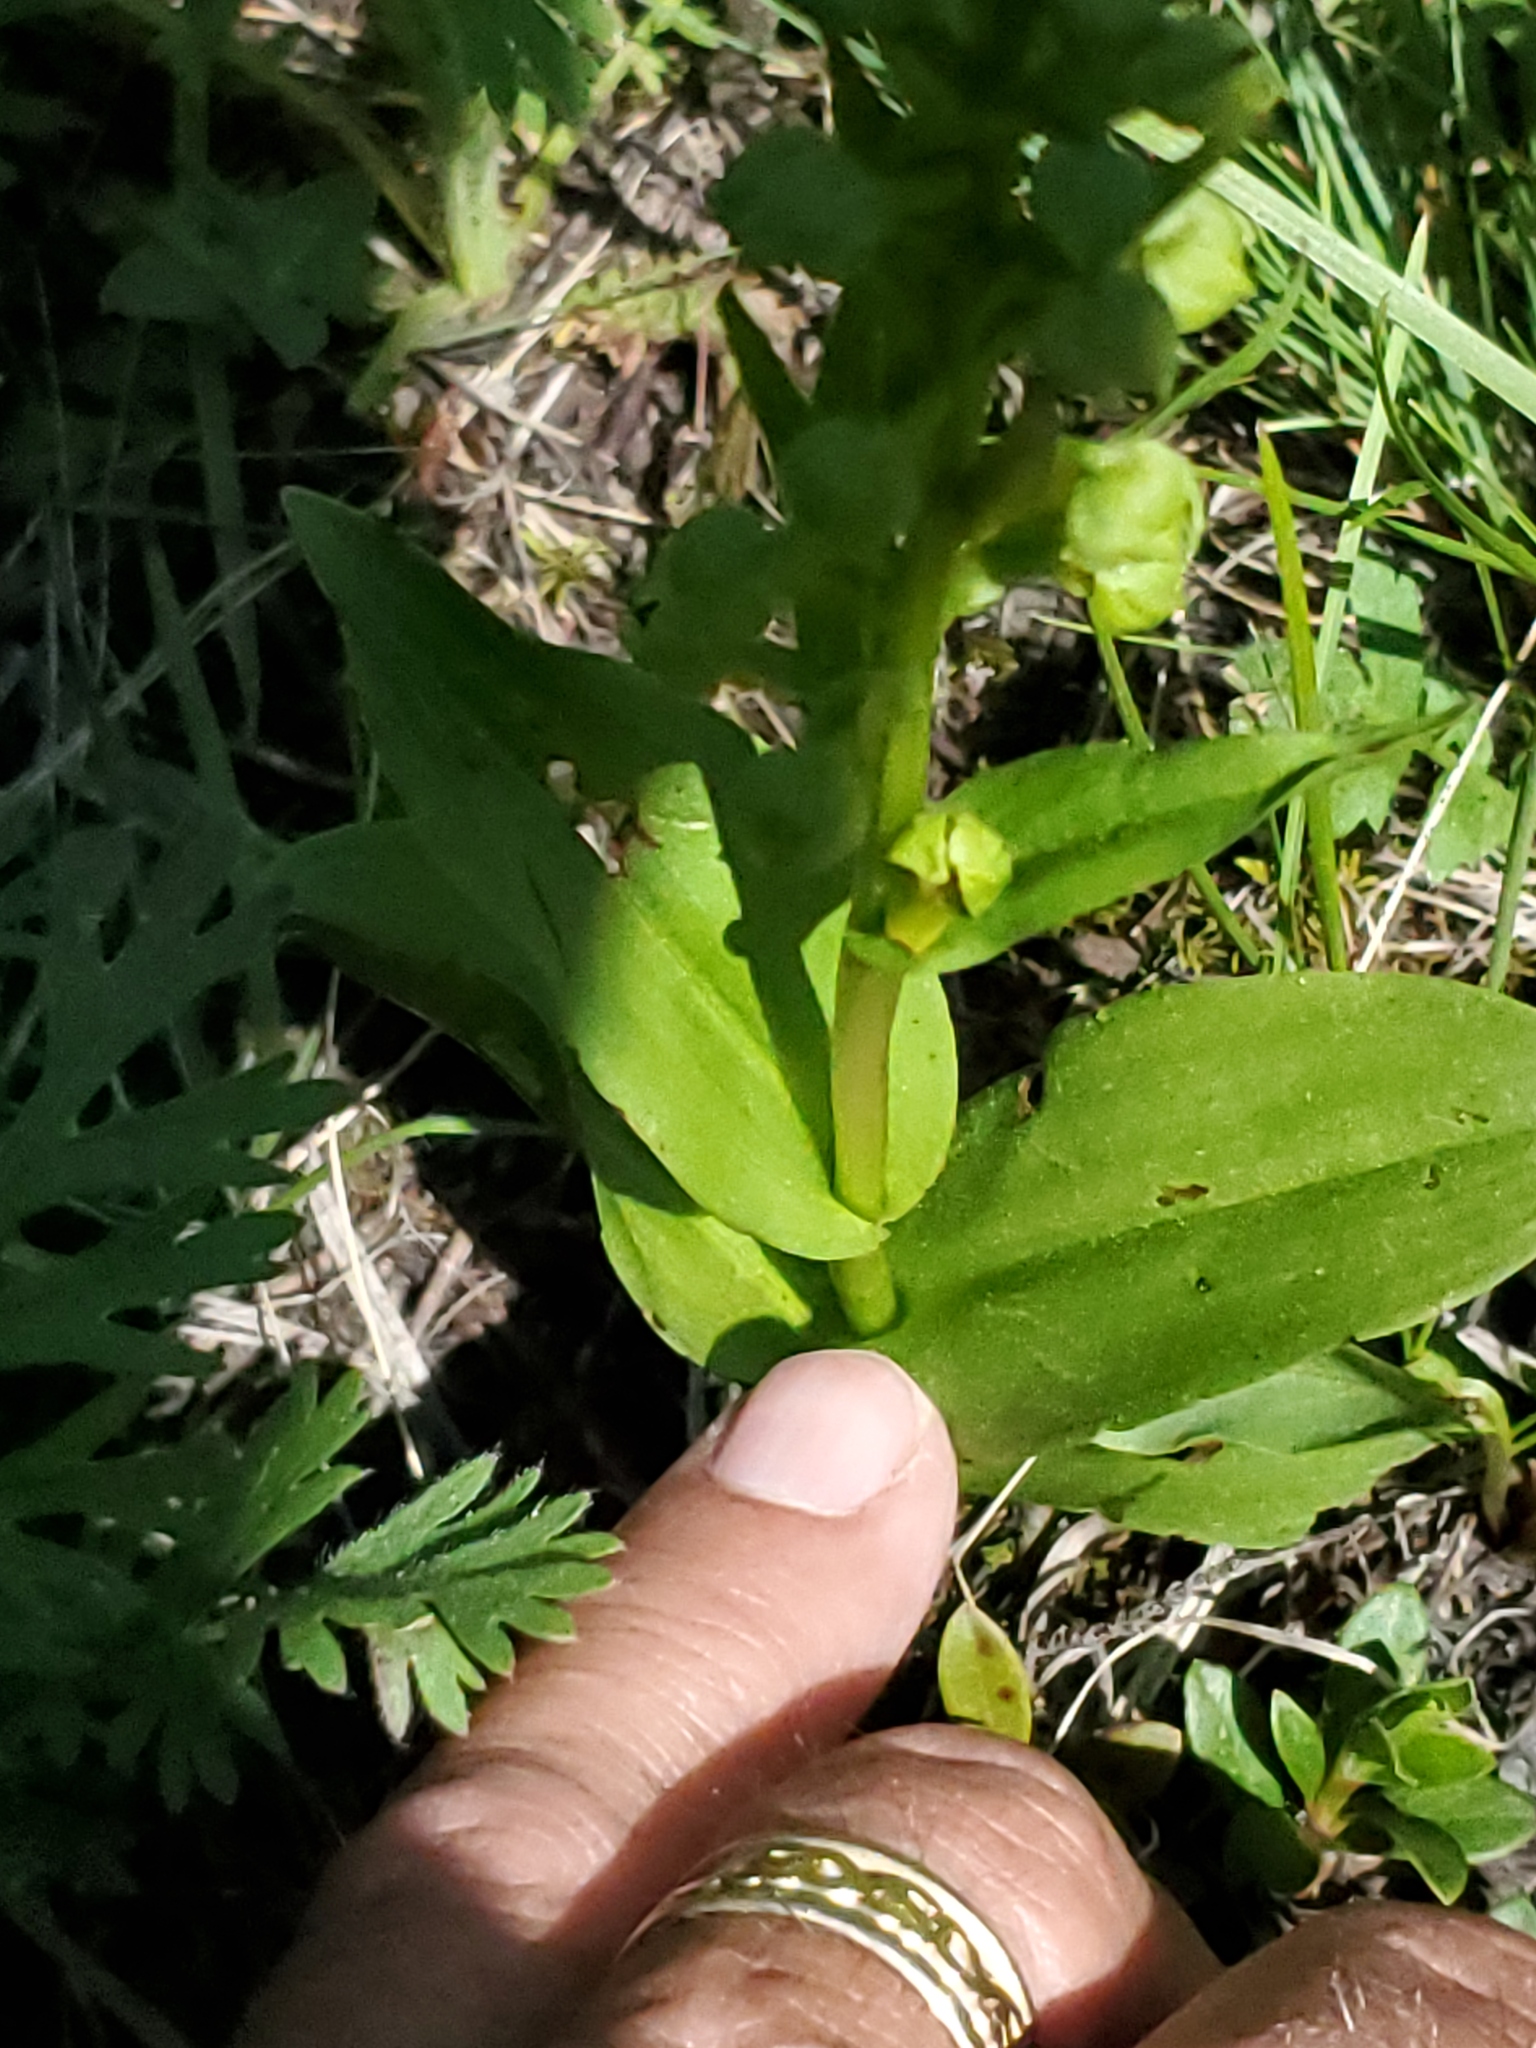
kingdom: Plantae
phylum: Tracheophyta
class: Liliopsida
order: Asparagales
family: Orchidaceae
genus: Dactylorhiza
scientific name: Dactylorhiza viridis
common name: Longbract frog orchid
